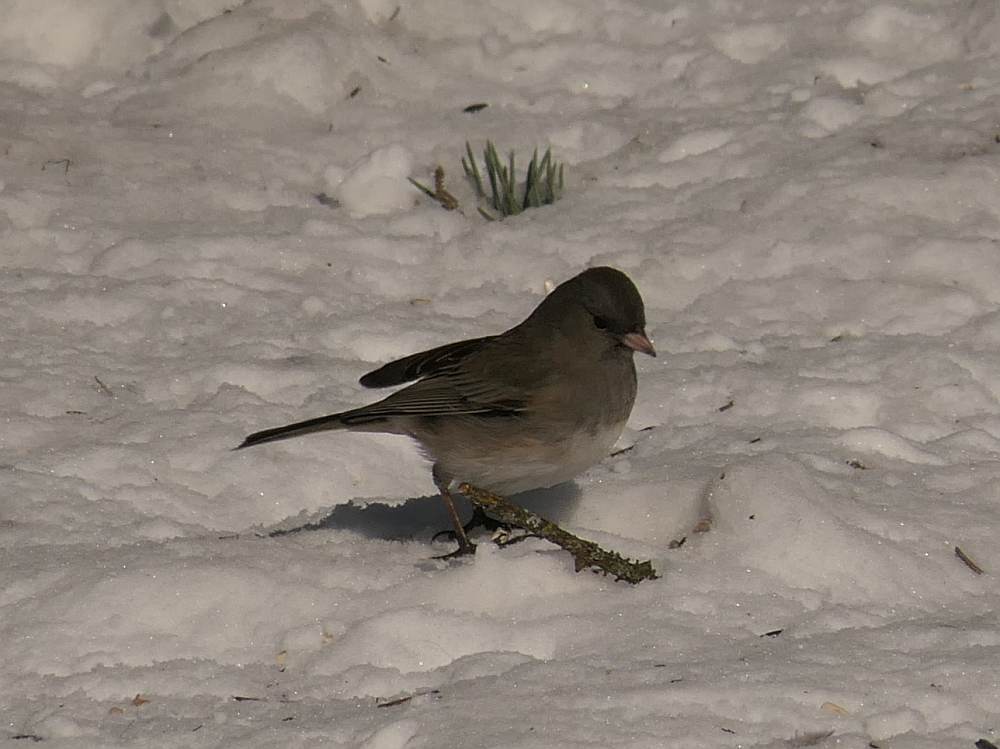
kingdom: Animalia
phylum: Chordata
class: Aves
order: Passeriformes
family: Passerellidae
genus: Junco
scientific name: Junco hyemalis
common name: Dark-eyed junco
